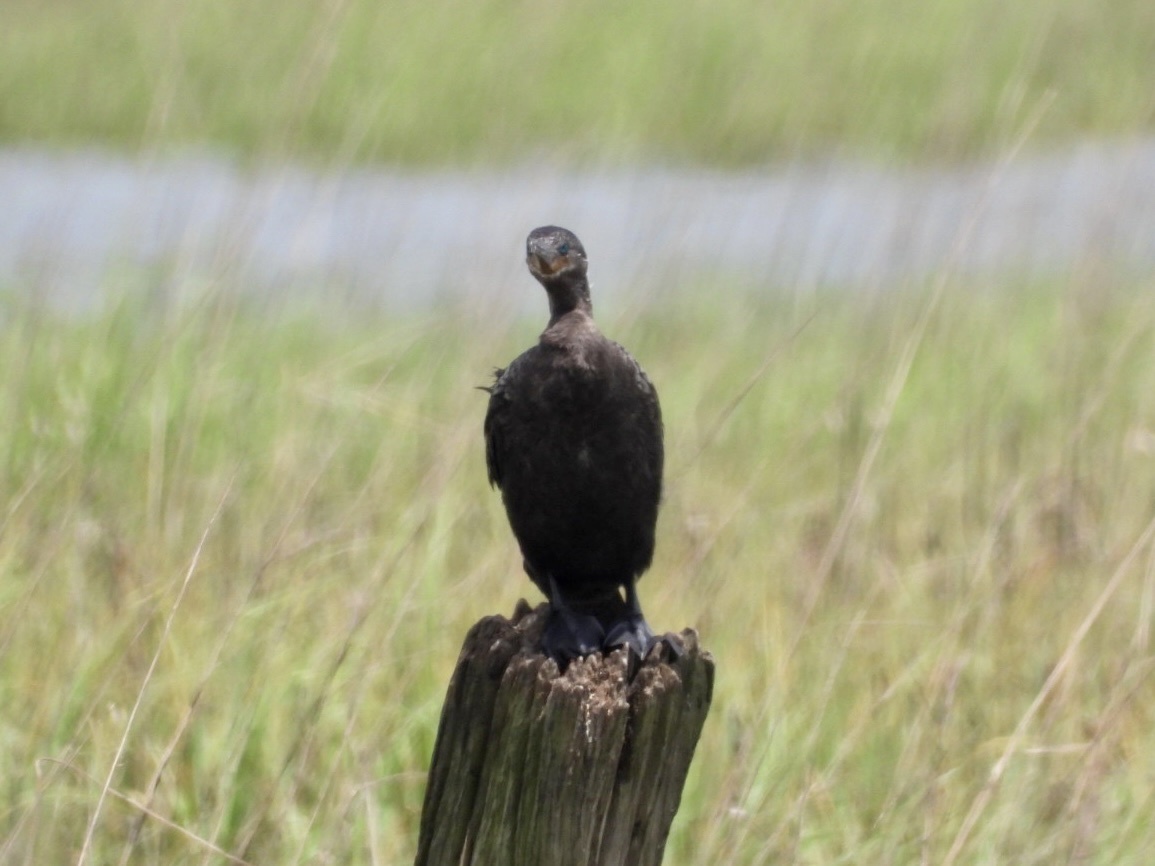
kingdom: Animalia
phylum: Chordata
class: Aves
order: Suliformes
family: Phalacrocoracidae
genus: Phalacrocorax
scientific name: Phalacrocorax brasilianus
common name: Neotropic cormorant
